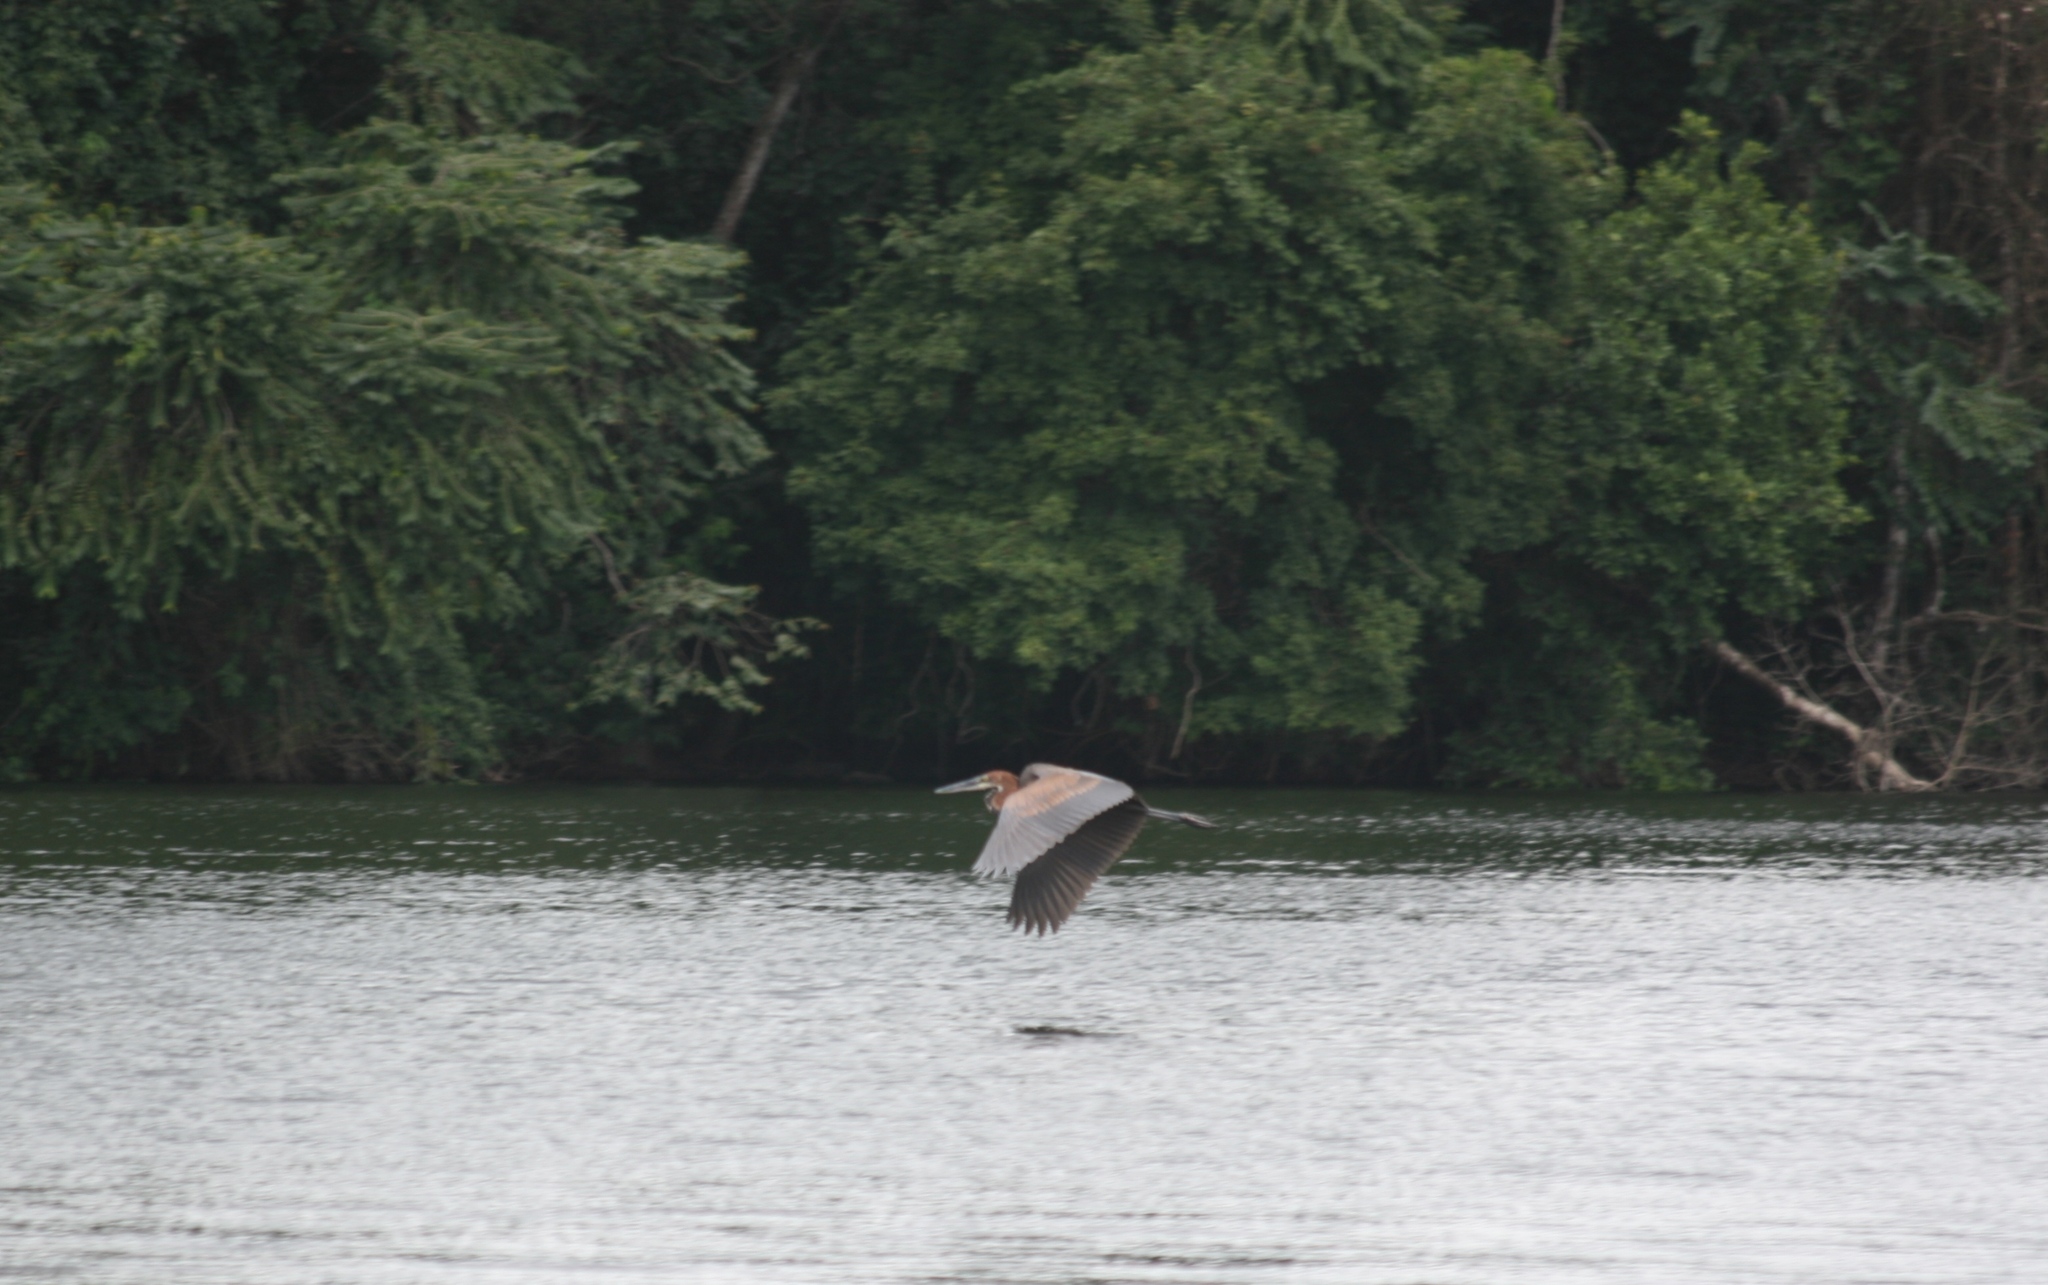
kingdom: Animalia
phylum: Chordata
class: Aves
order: Pelecaniformes
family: Ardeidae
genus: Ardea
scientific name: Ardea goliath
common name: Goliath heron
